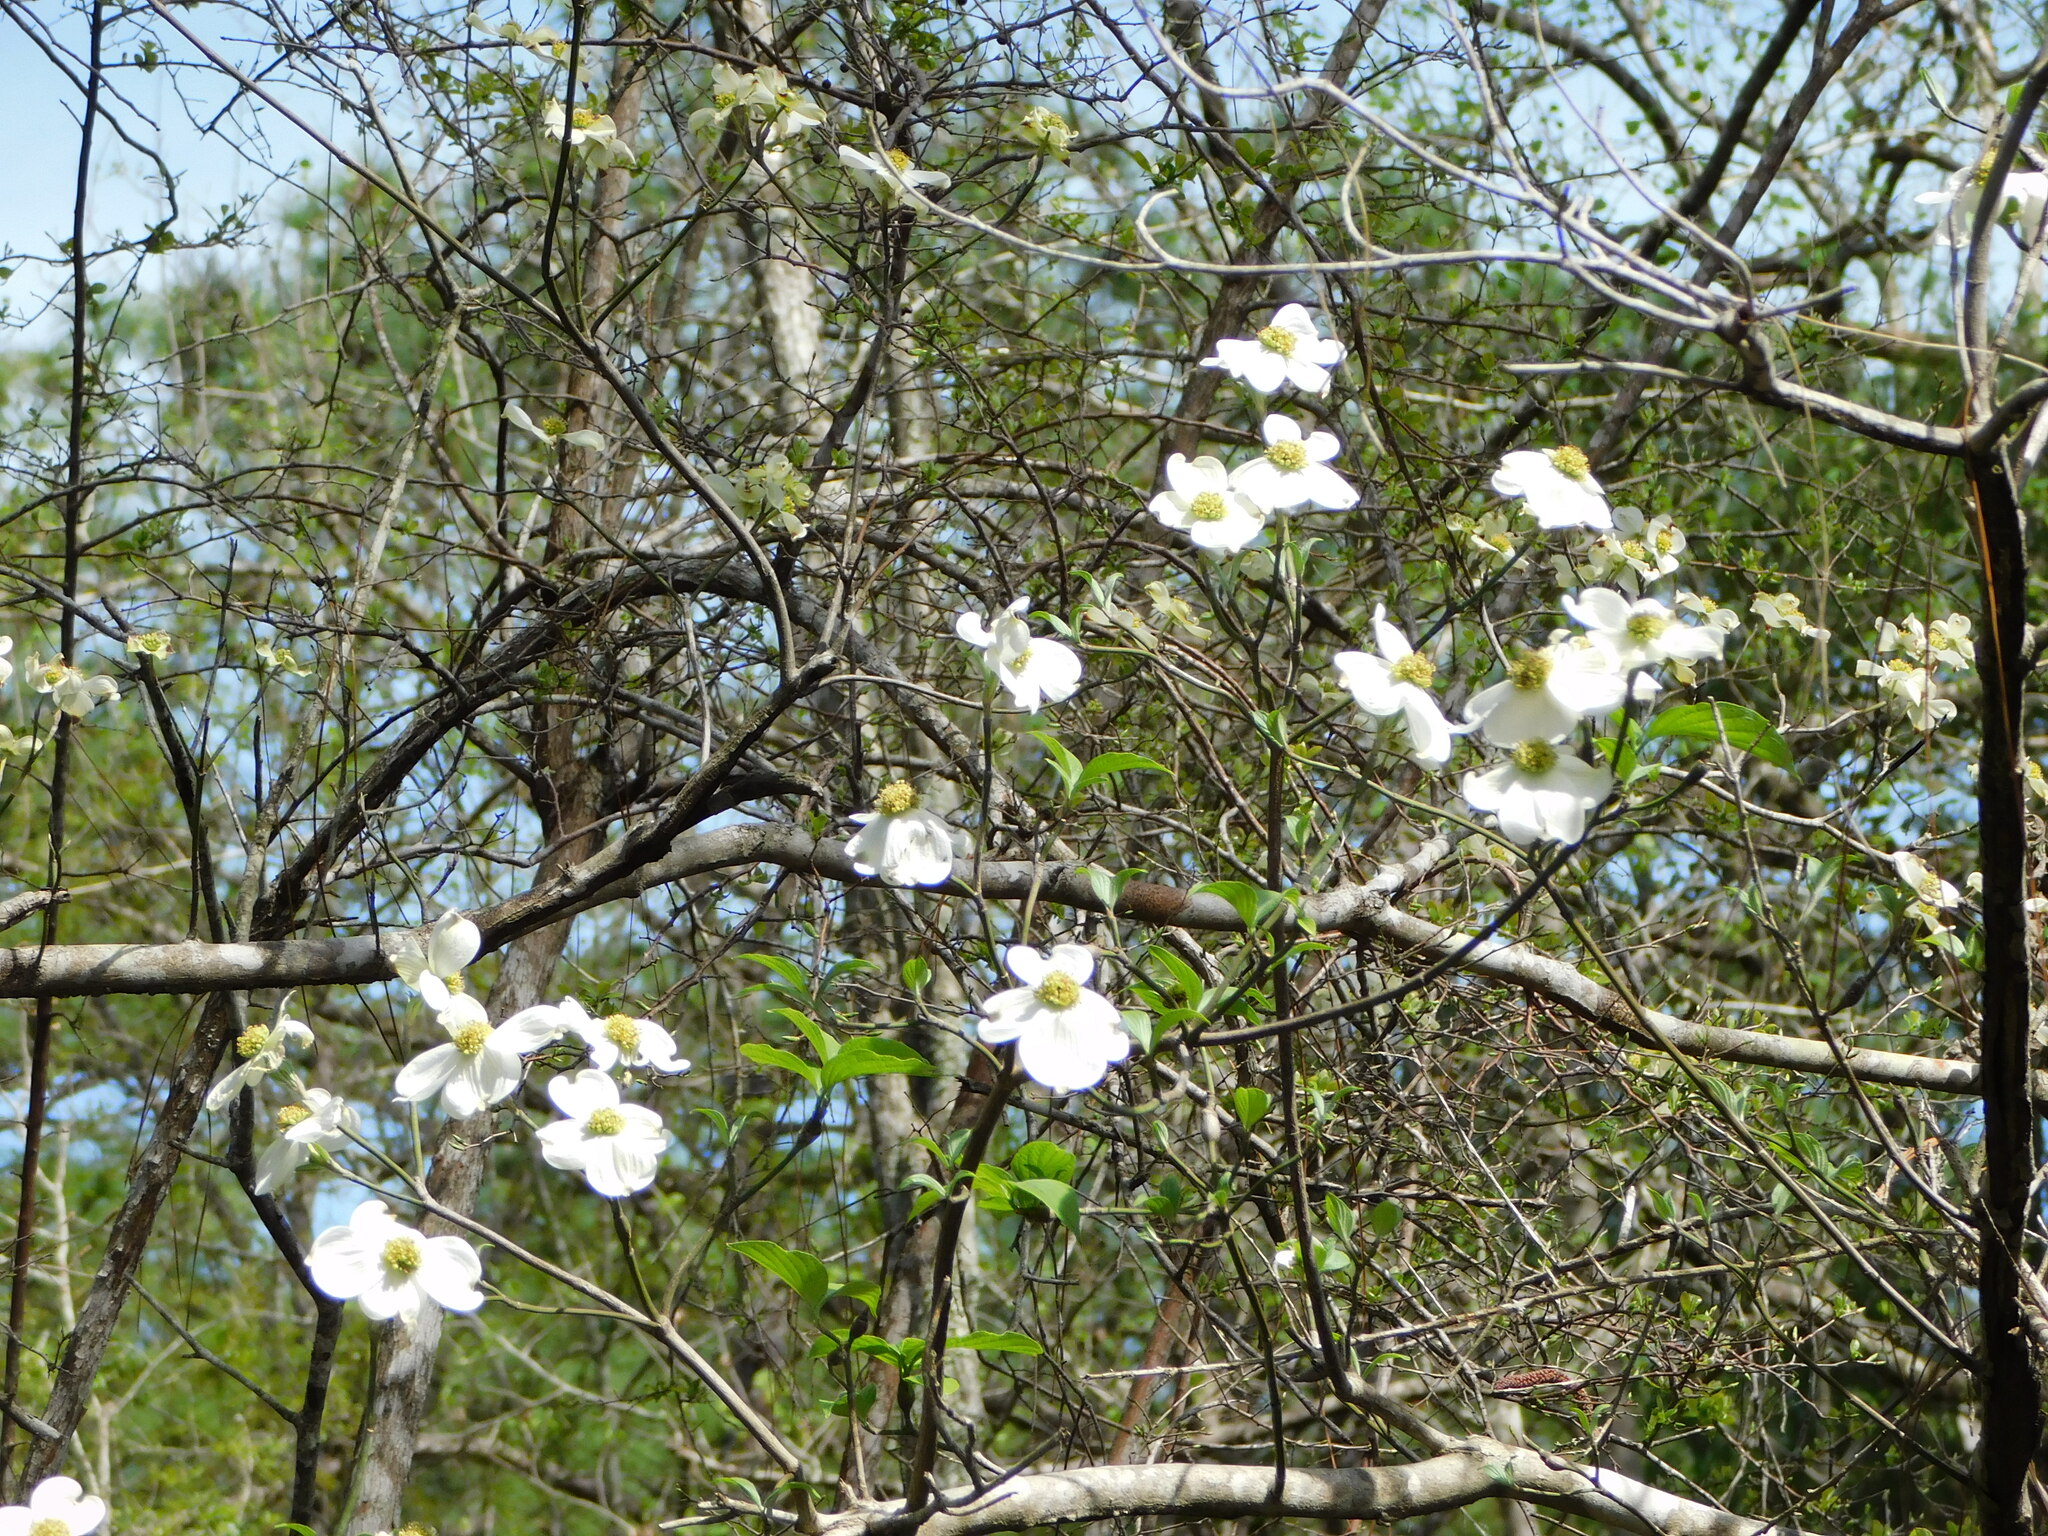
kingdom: Plantae
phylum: Tracheophyta
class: Magnoliopsida
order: Cornales
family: Cornaceae
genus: Cornus
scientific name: Cornus florida
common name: Flowering dogwood
